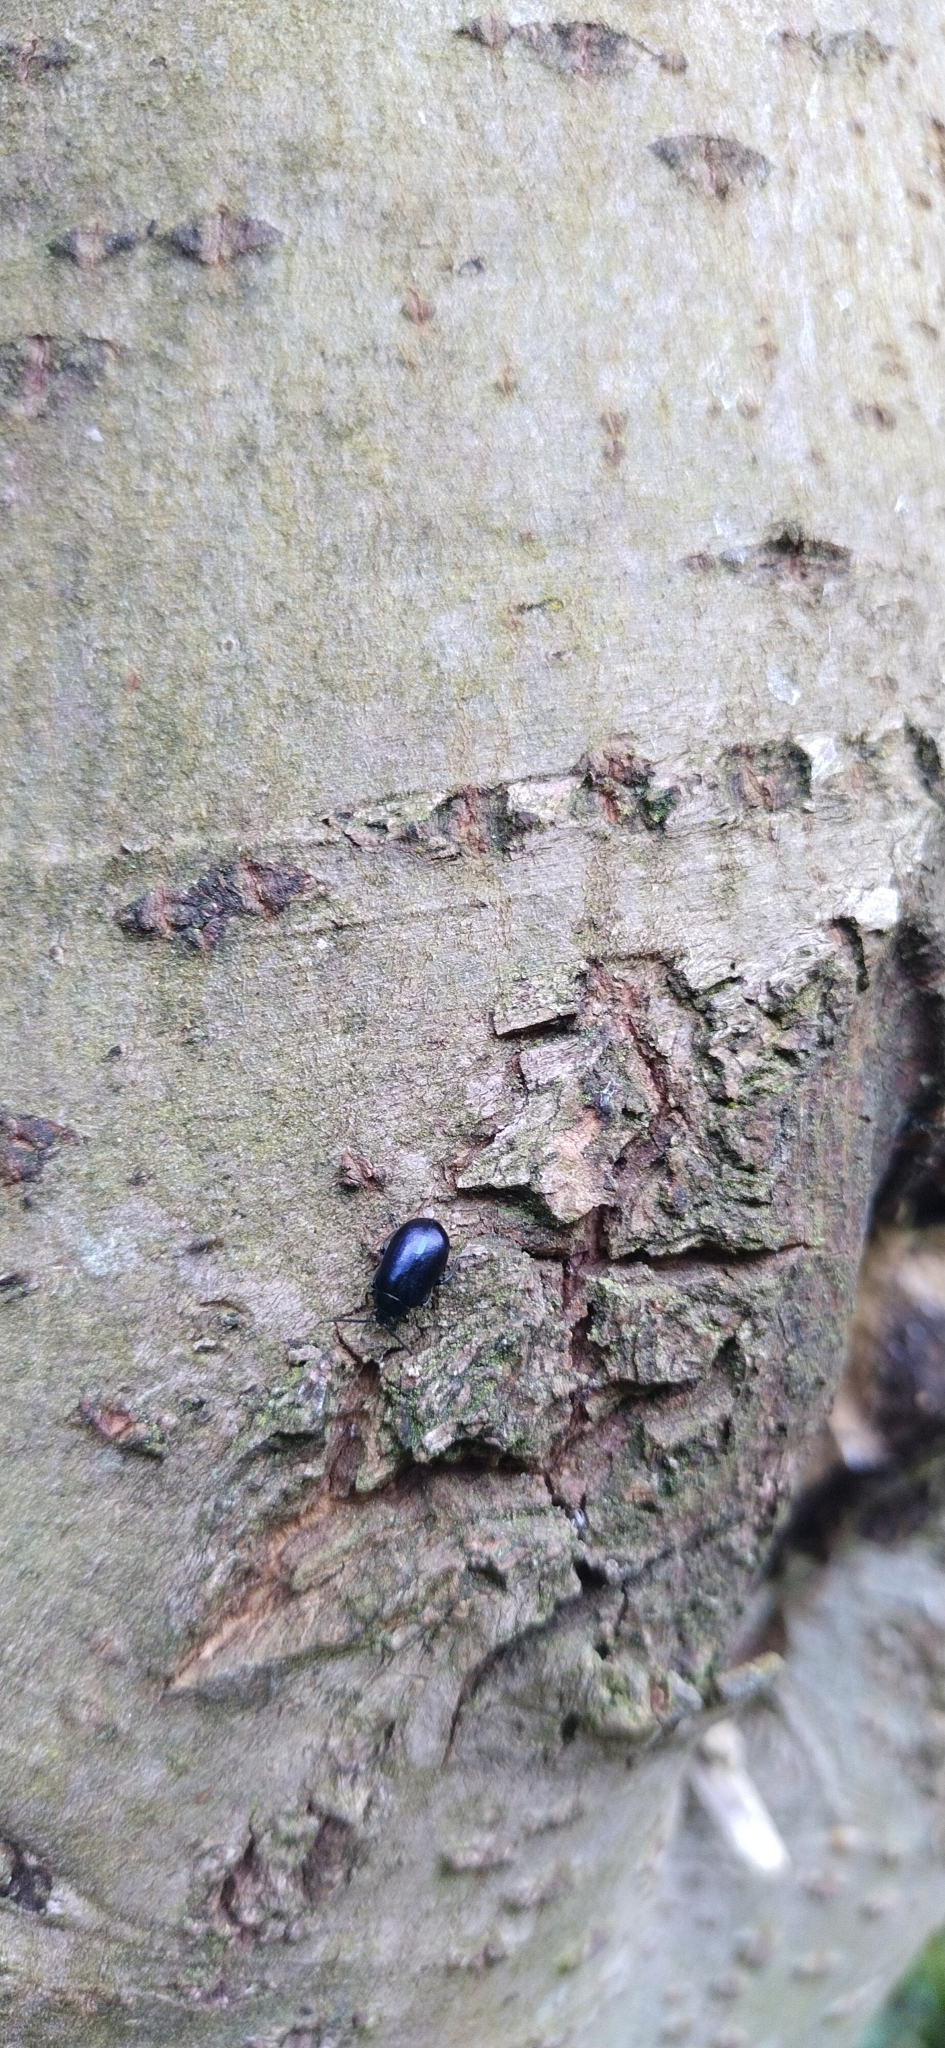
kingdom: Animalia
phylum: Arthropoda
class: Insecta
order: Coleoptera
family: Chrysomelidae
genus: Agelastica
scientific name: Agelastica alni
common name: Alder leaf beetle
